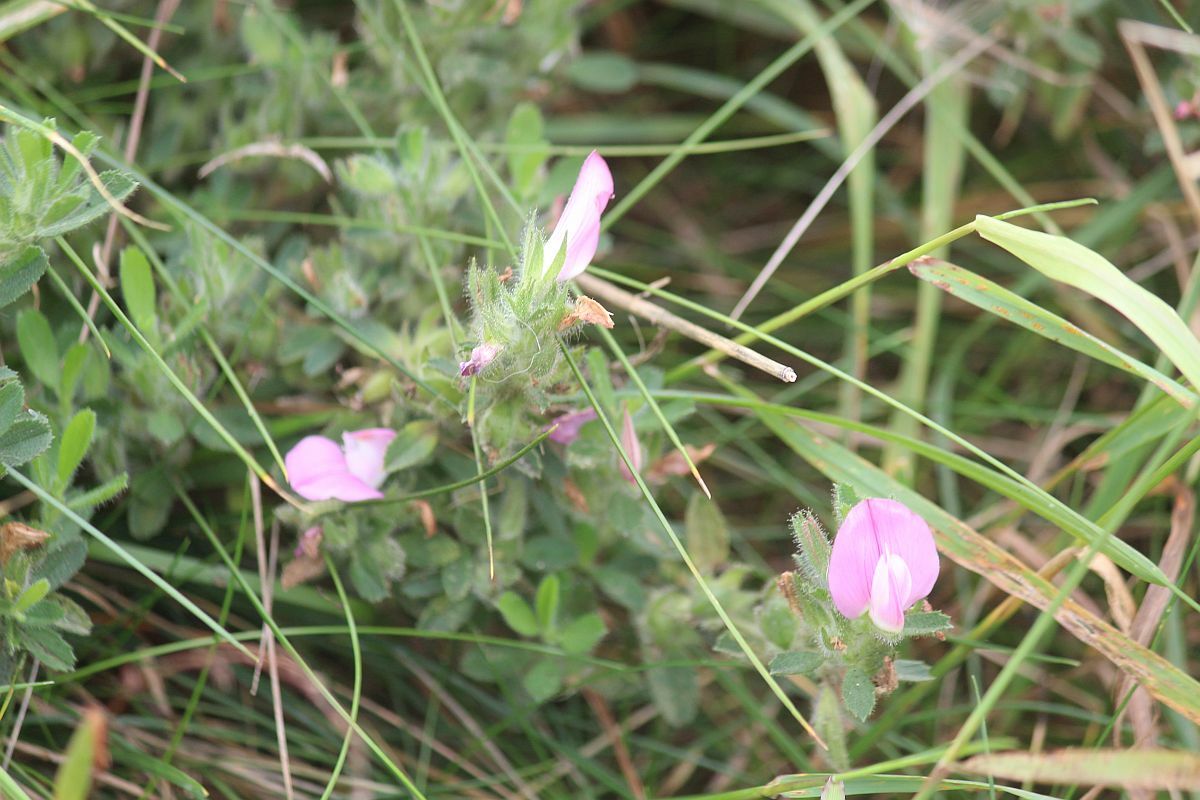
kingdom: Plantae
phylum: Tracheophyta
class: Magnoliopsida
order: Fabales
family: Fabaceae
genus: Ononis
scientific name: Ononis spinosa
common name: Spiny restharrow
